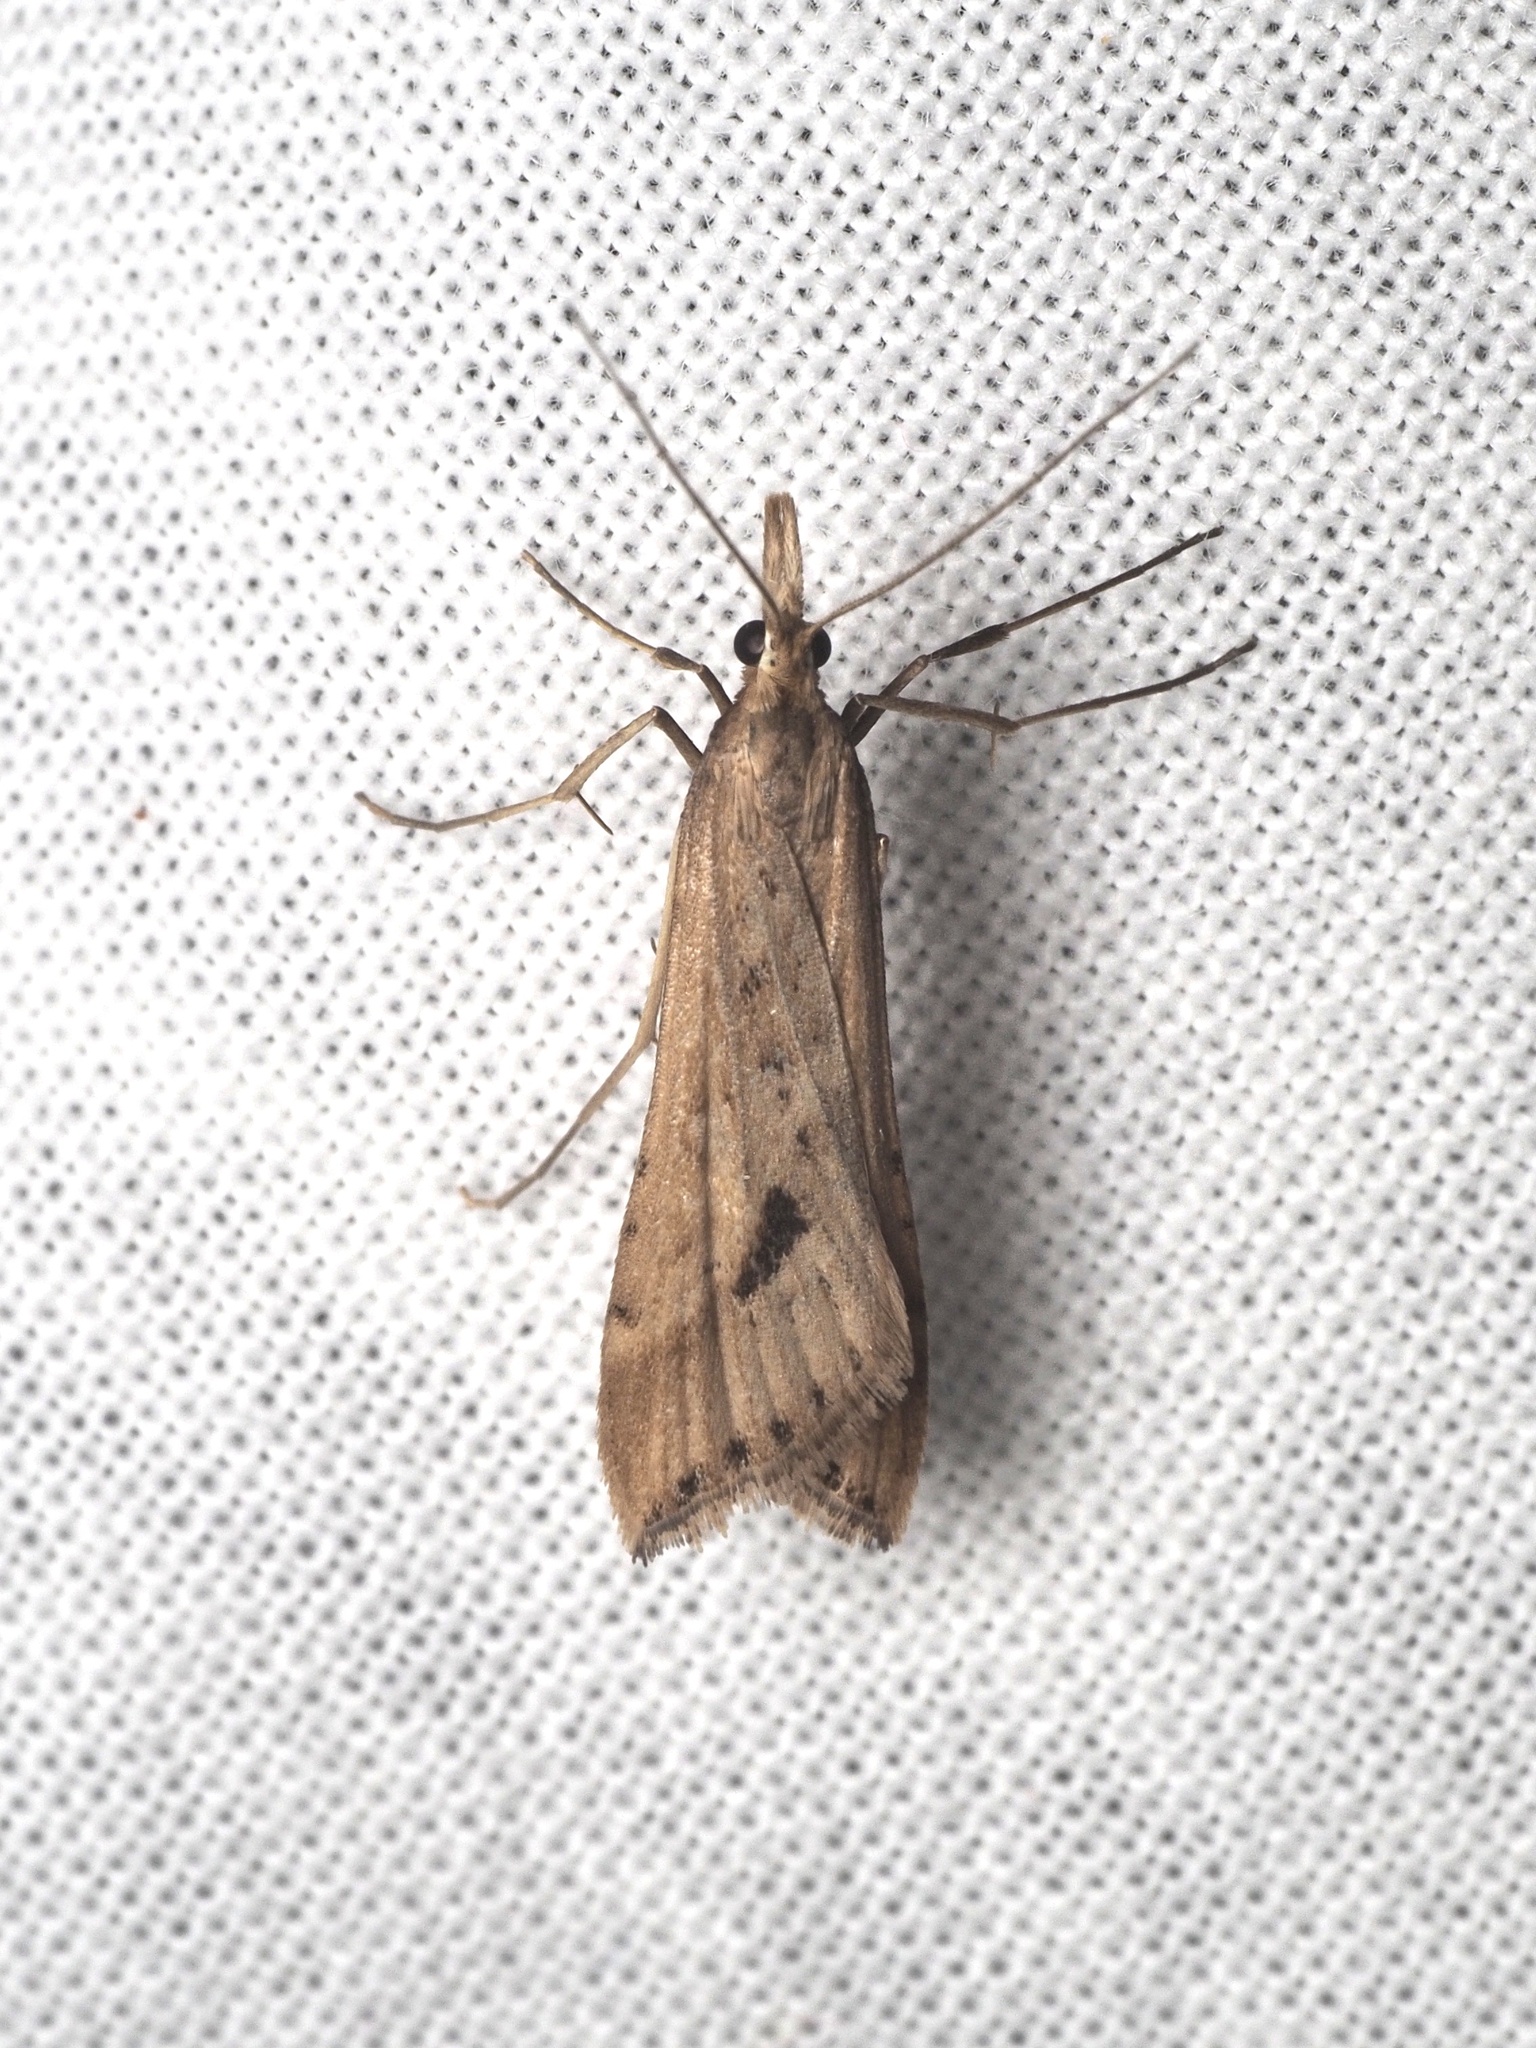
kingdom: Animalia
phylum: Arthropoda
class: Insecta
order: Lepidoptera
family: Crambidae
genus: Diasemia
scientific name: Diasemia monostigma
